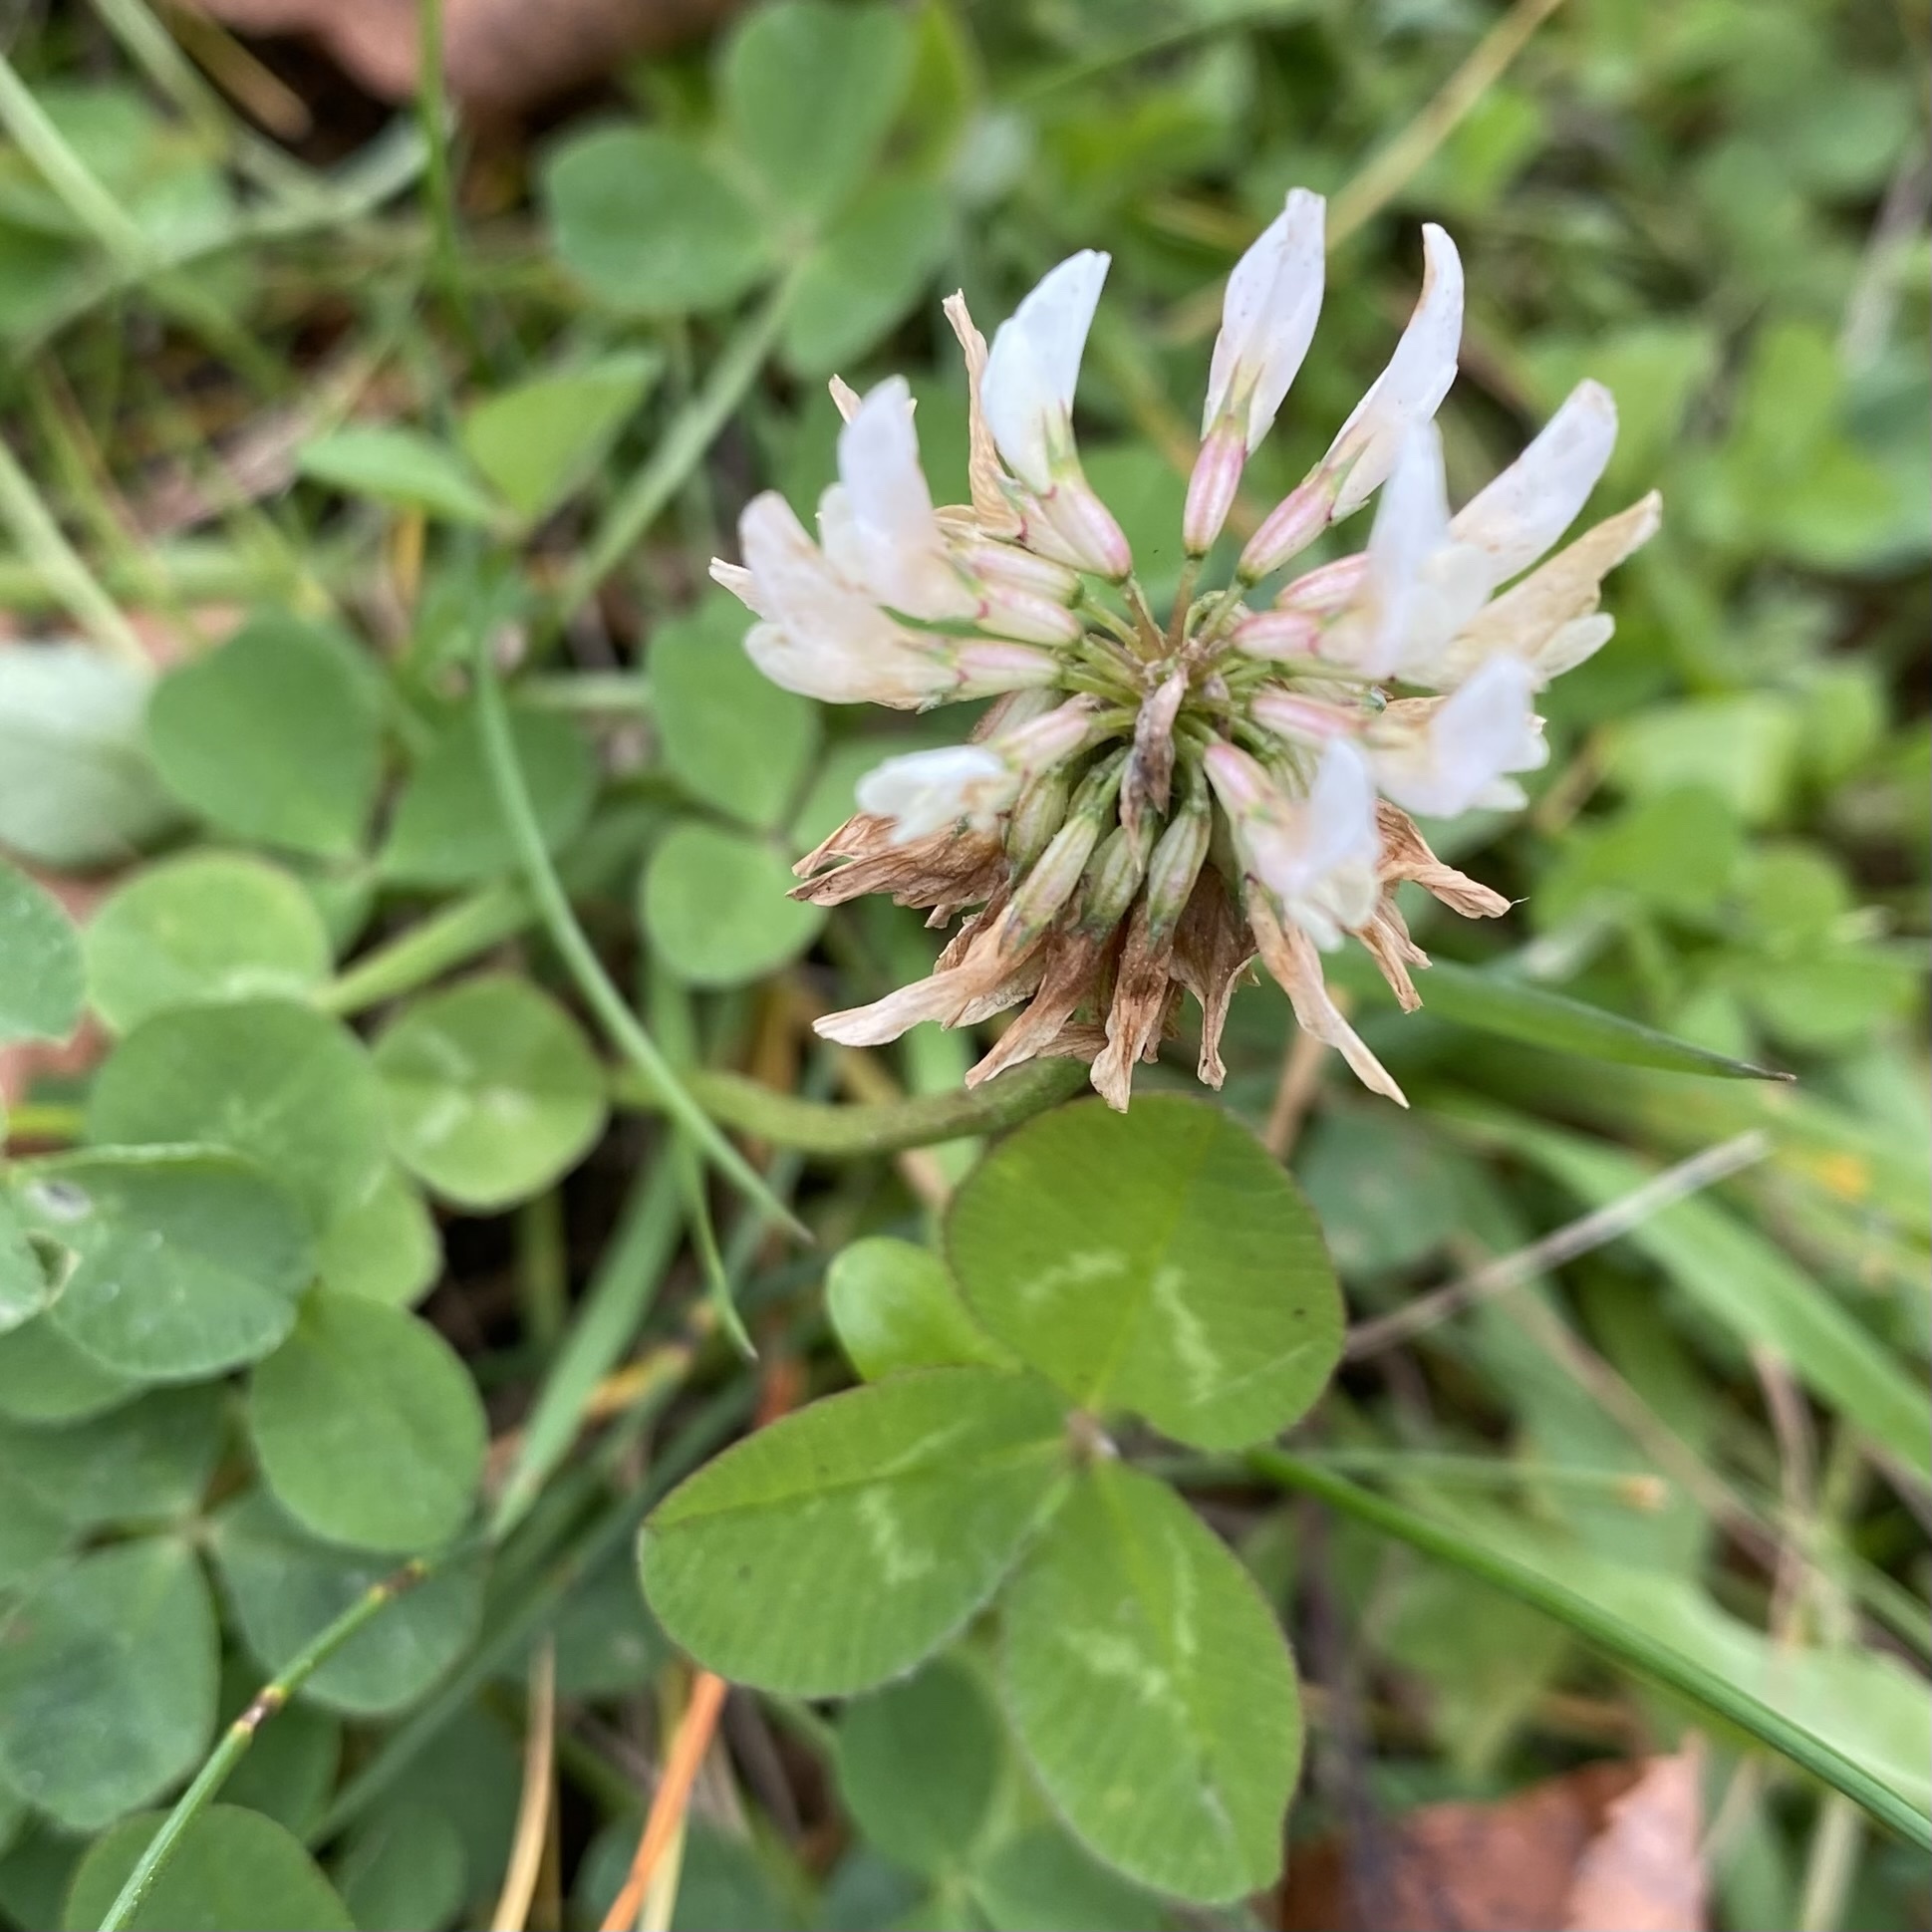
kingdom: Plantae
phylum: Tracheophyta
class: Magnoliopsida
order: Fabales
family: Fabaceae
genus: Trifolium
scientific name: Trifolium repens
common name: White clover
